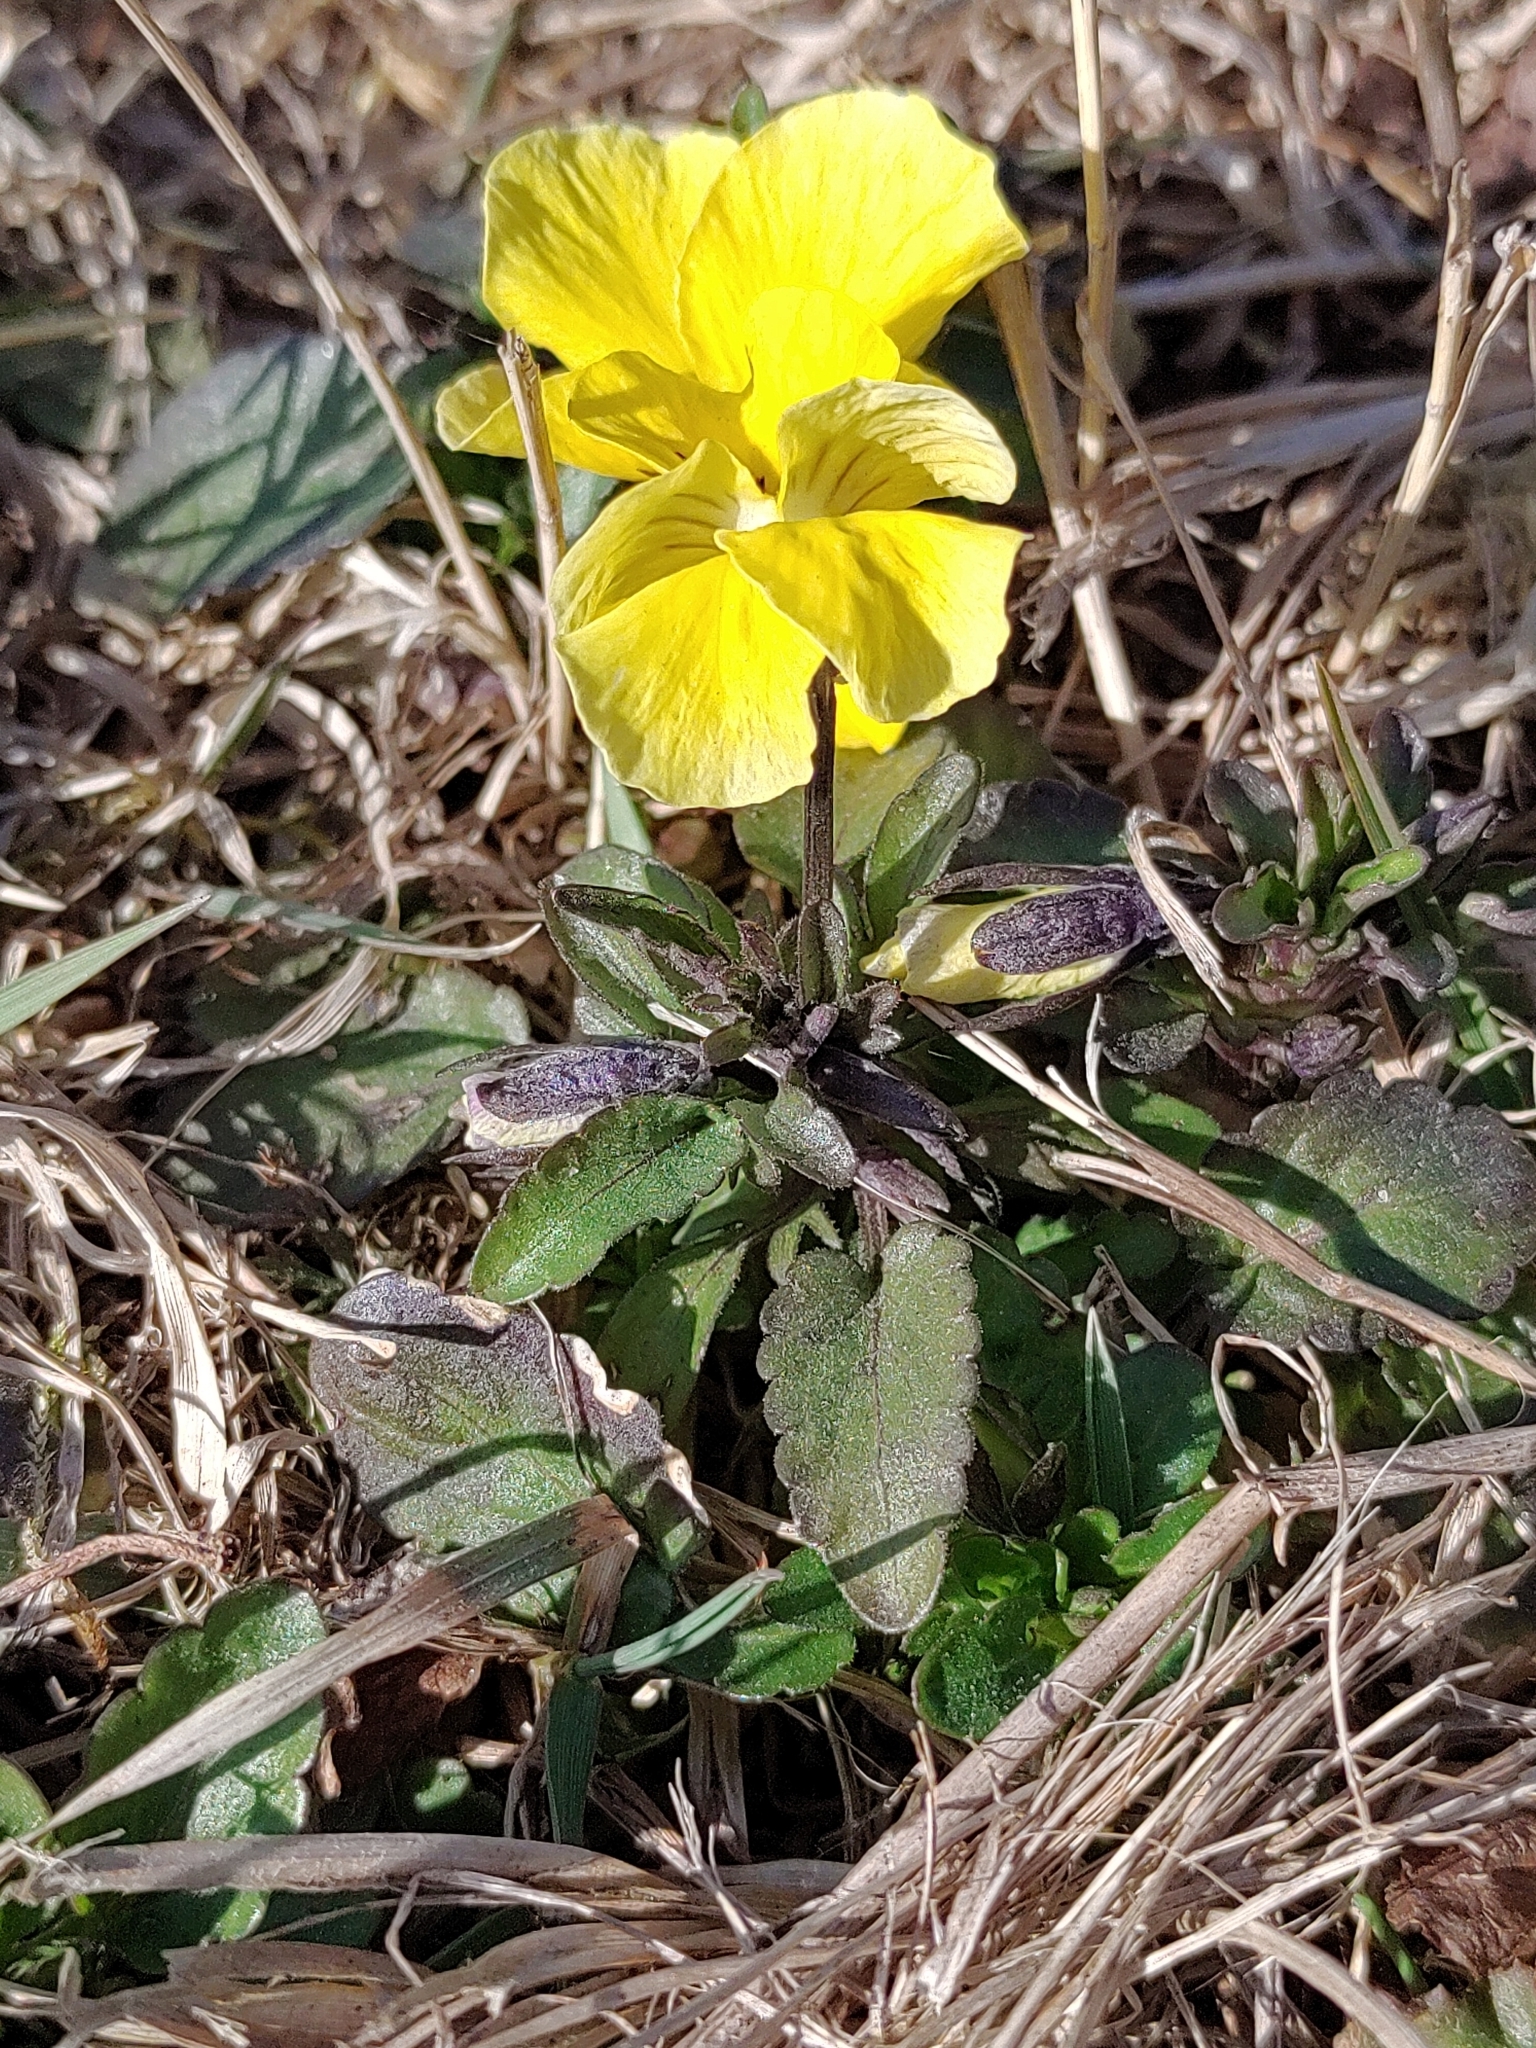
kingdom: Plantae
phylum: Tracheophyta
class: Magnoliopsida
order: Malpighiales
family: Violaceae
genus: Viola
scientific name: Viola wittrockiana
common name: Garden pansy
